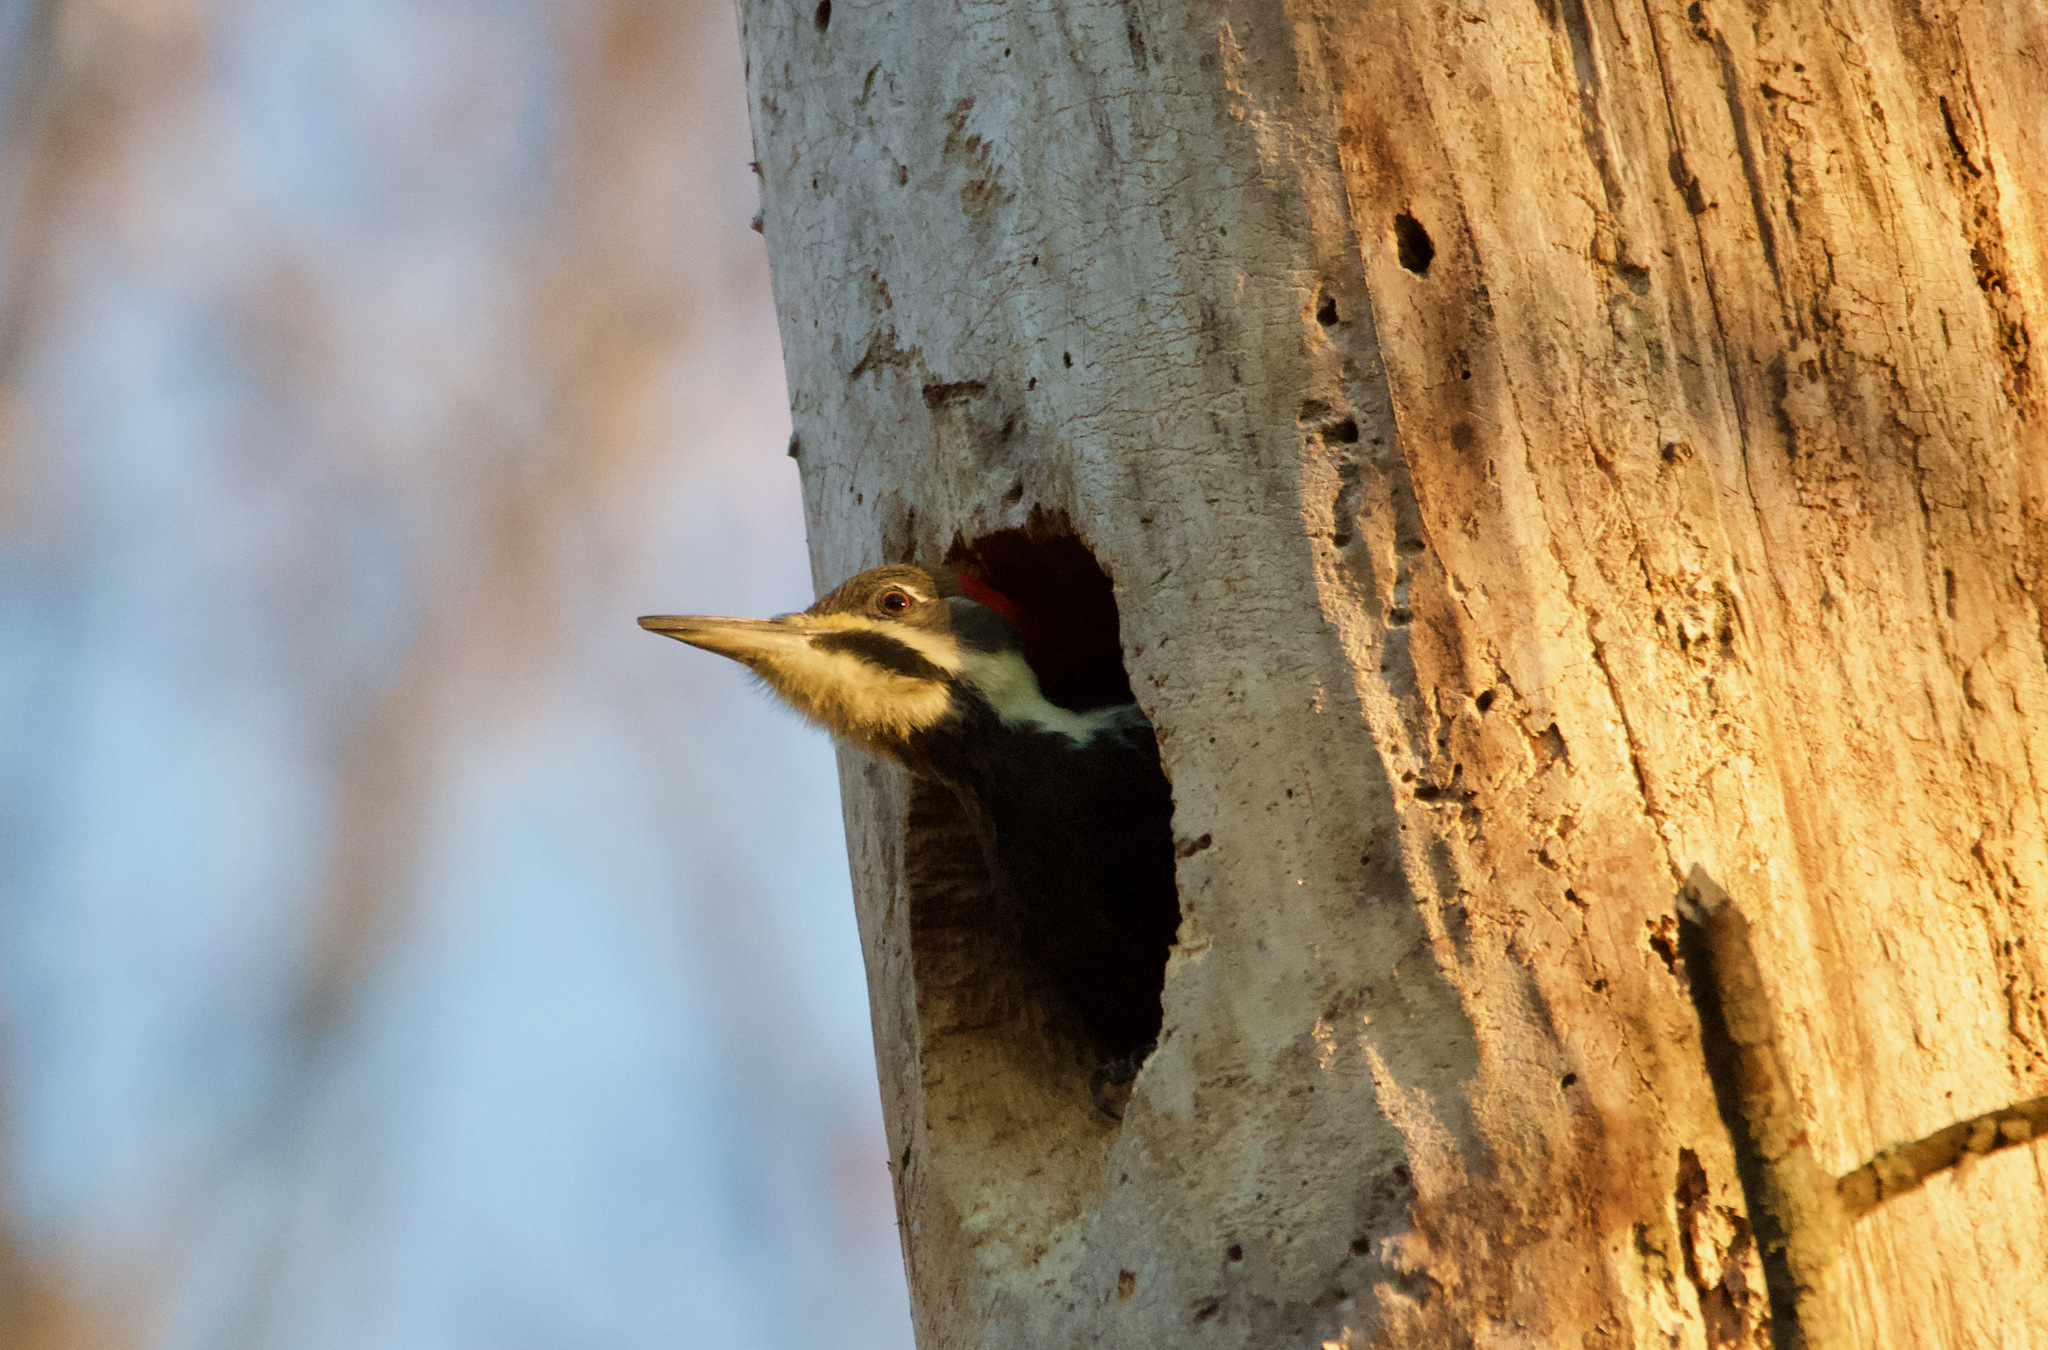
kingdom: Animalia
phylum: Chordata
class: Aves
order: Piciformes
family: Picidae
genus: Dryocopus
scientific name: Dryocopus pileatus
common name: Pileated woodpecker
